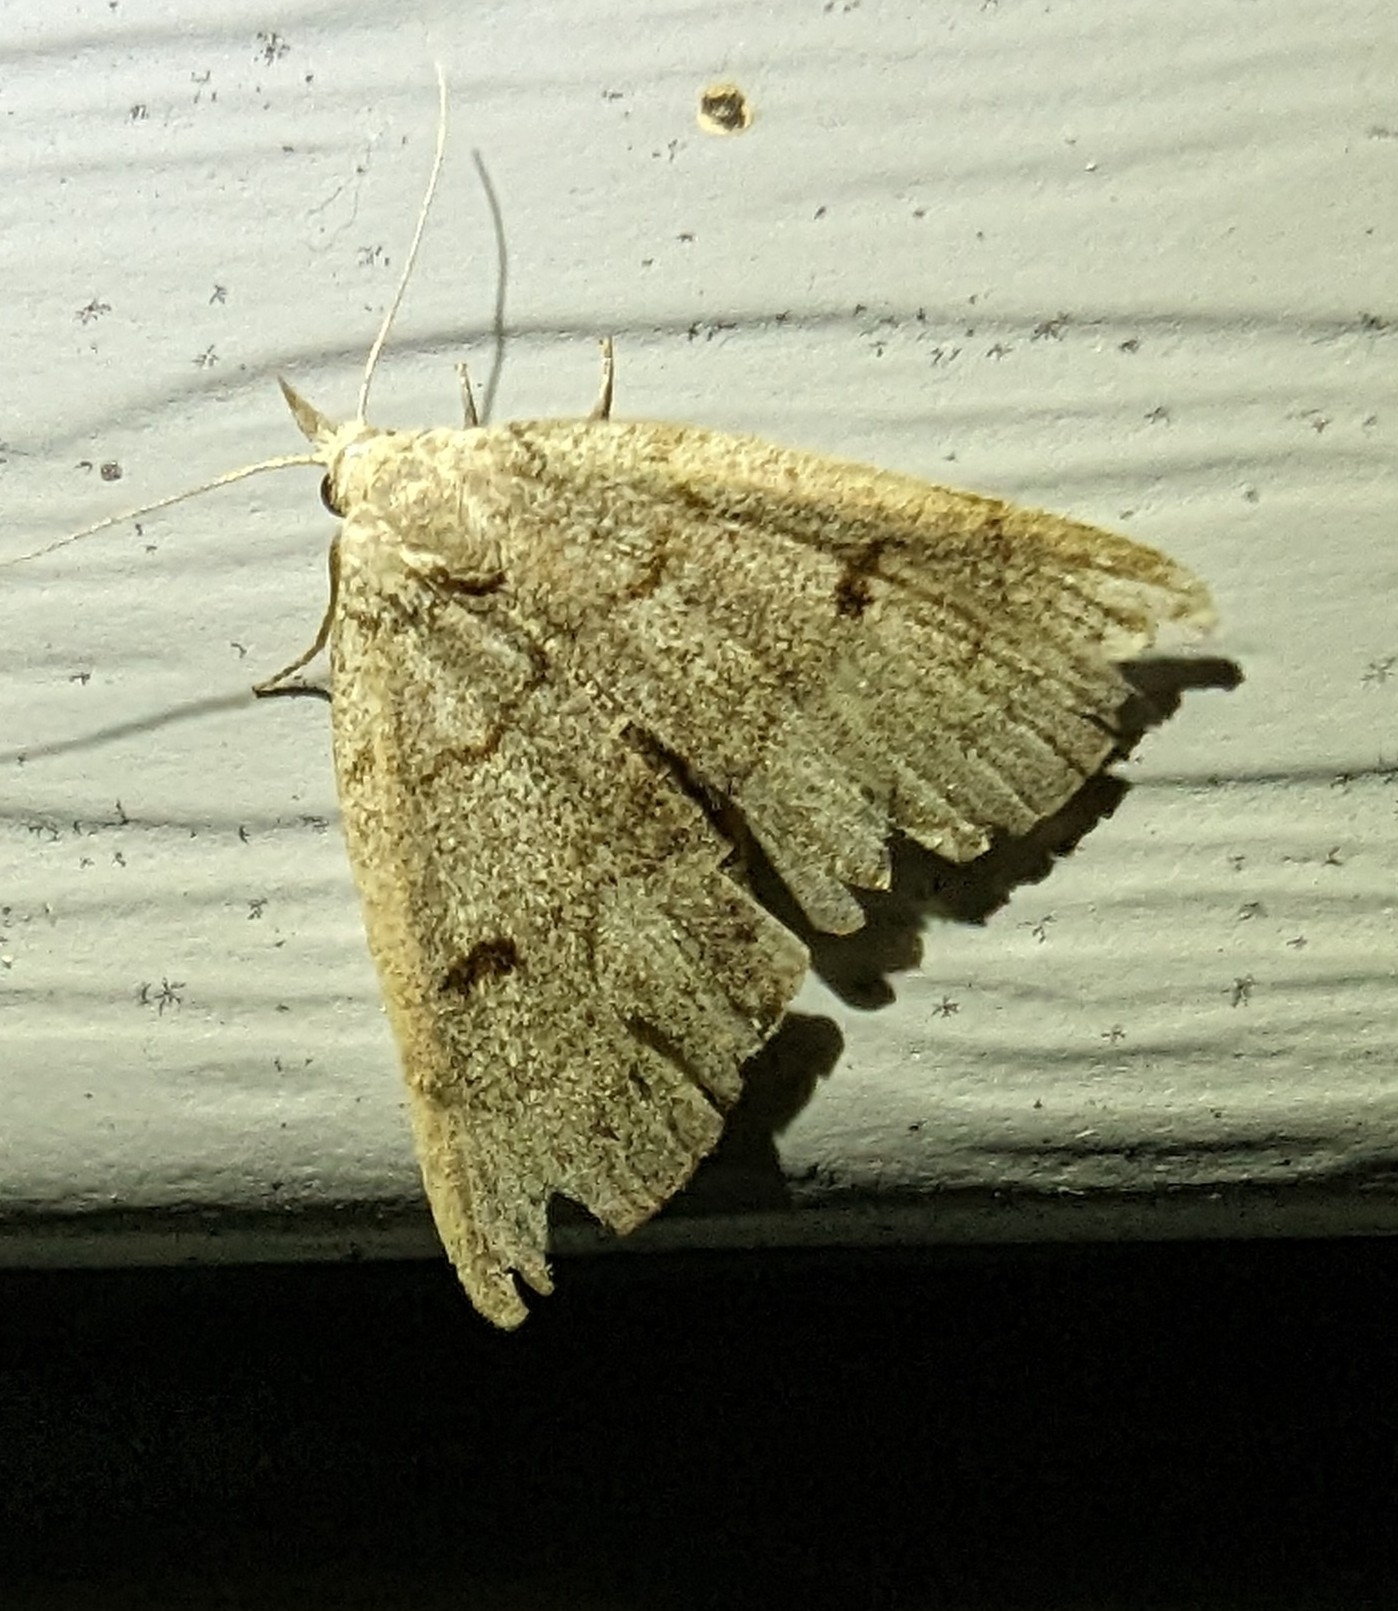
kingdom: Animalia
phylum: Arthropoda
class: Insecta
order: Lepidoptera
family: Erebidae
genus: Macrochilo
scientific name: Macrochilo morbidalis
